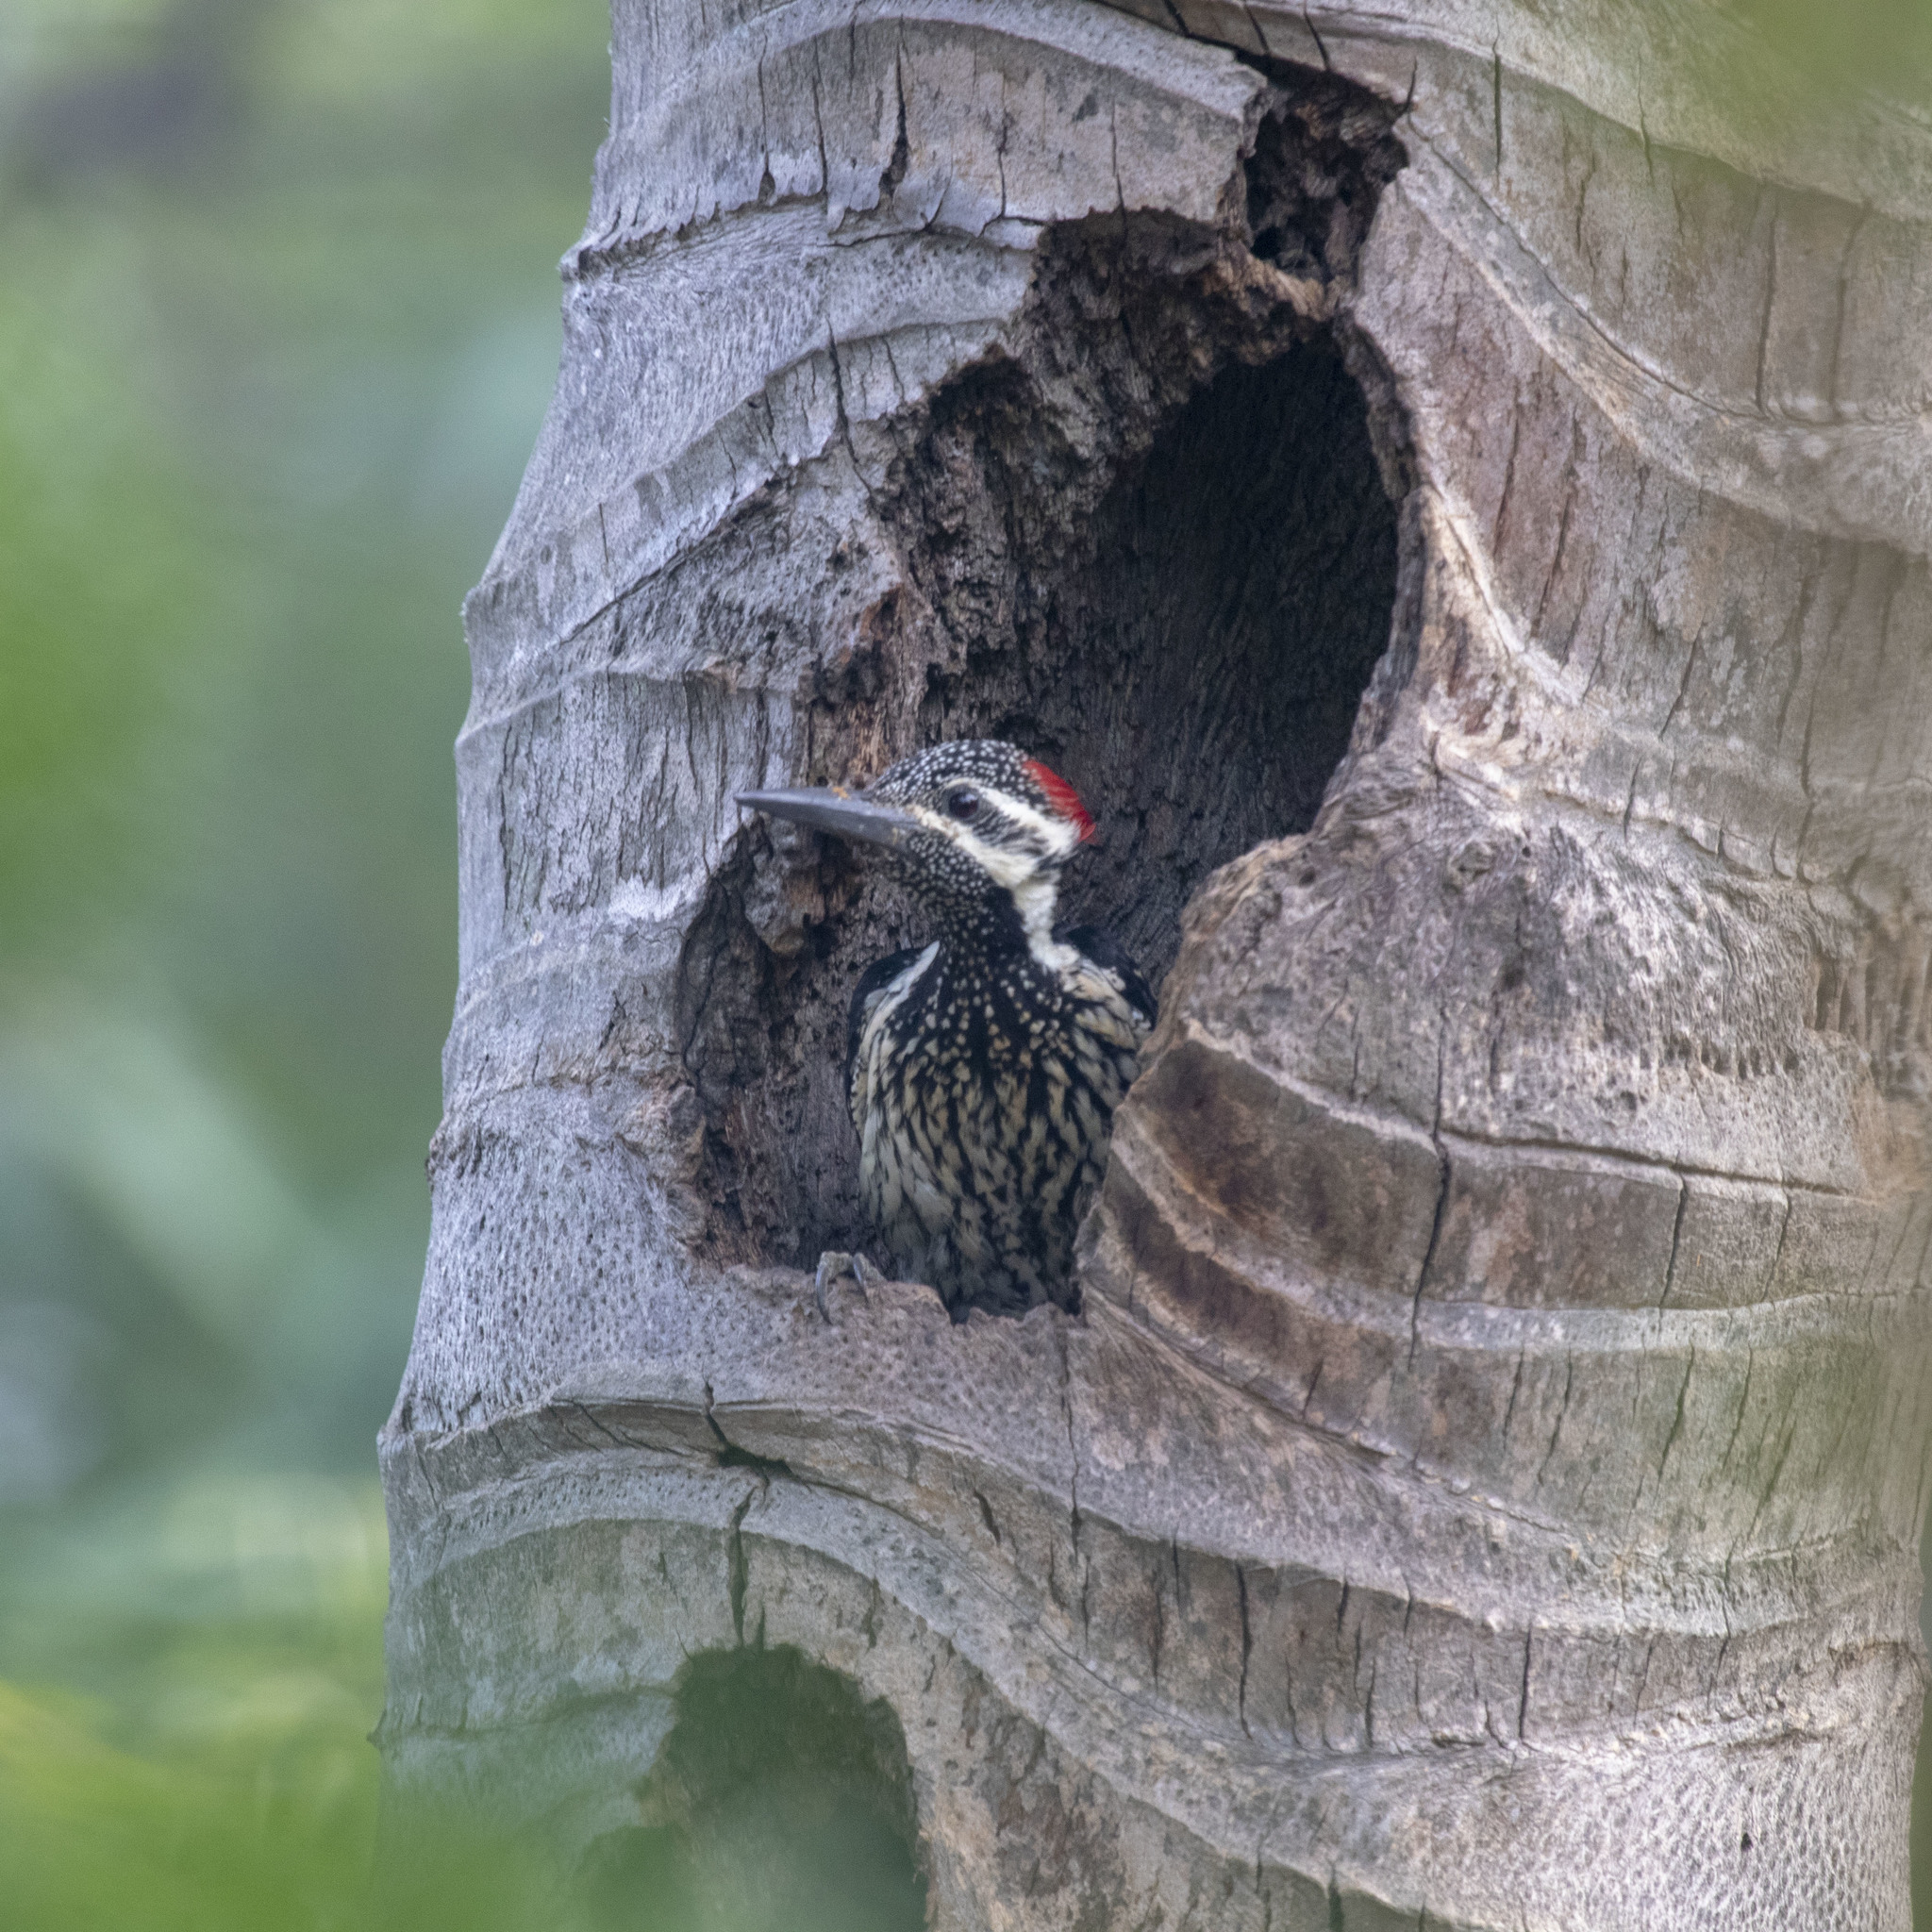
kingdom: Animalia
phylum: Chordata
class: Aves
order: Piciformes
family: Picidae
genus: Dinopium
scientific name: Dinopium benghalense
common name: Black-rumped flameback
